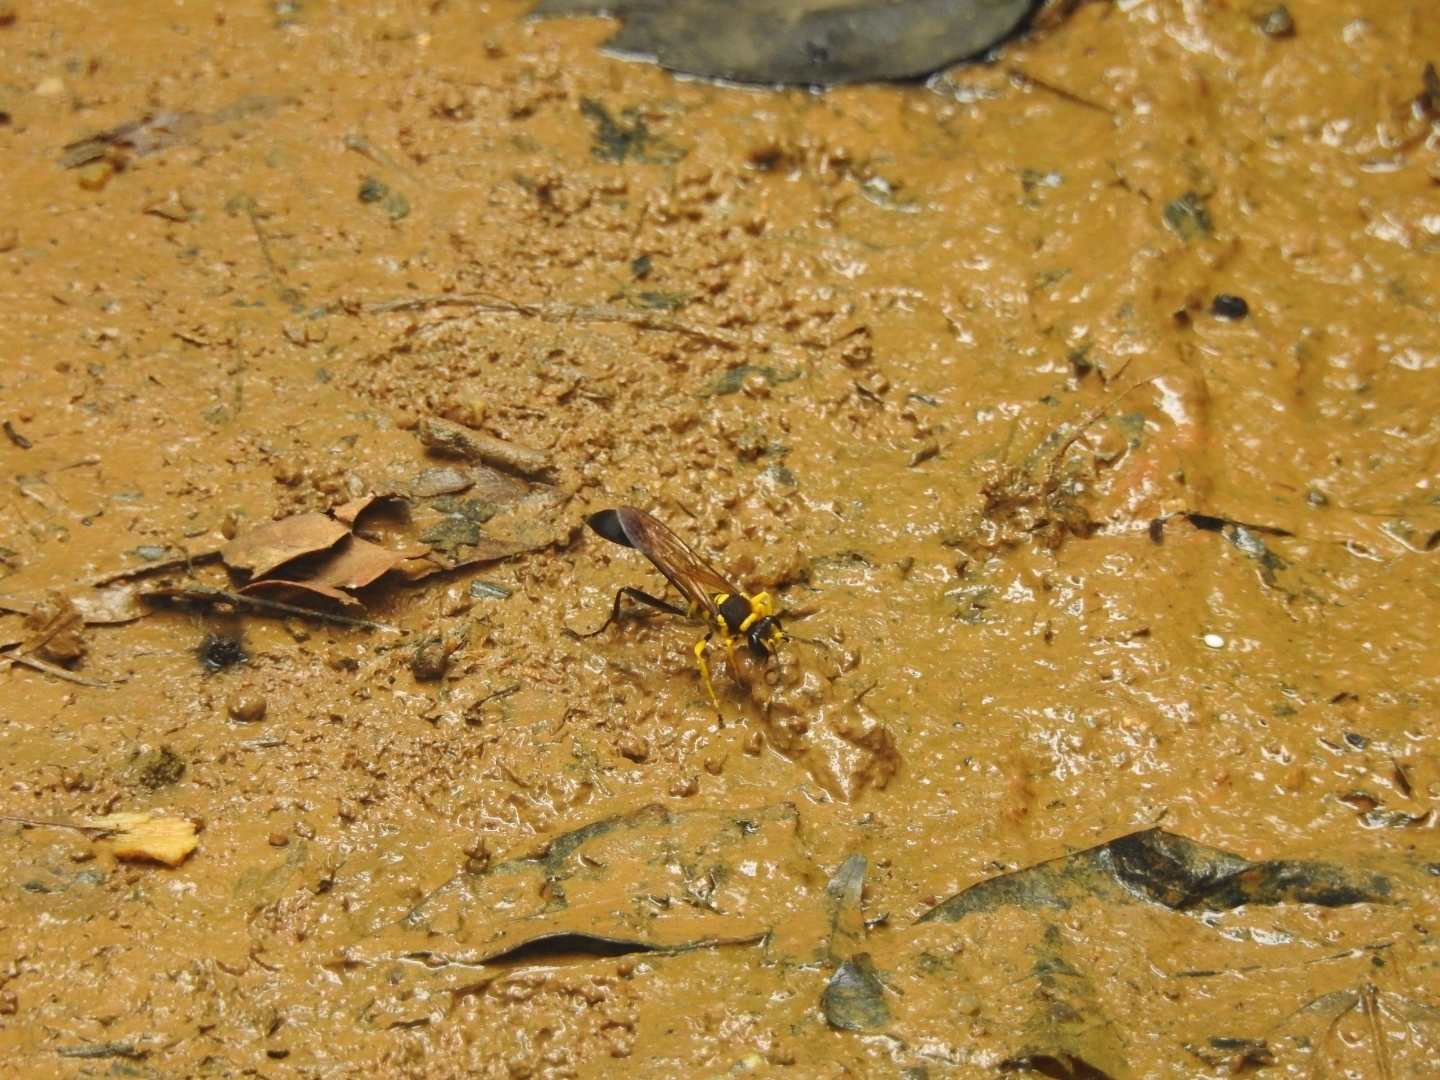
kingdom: Animalia
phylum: Arthropoda
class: Insecta
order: Hymenoptera
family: Sphecidae
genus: Sceliphron
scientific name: Sceliphron fistularium
